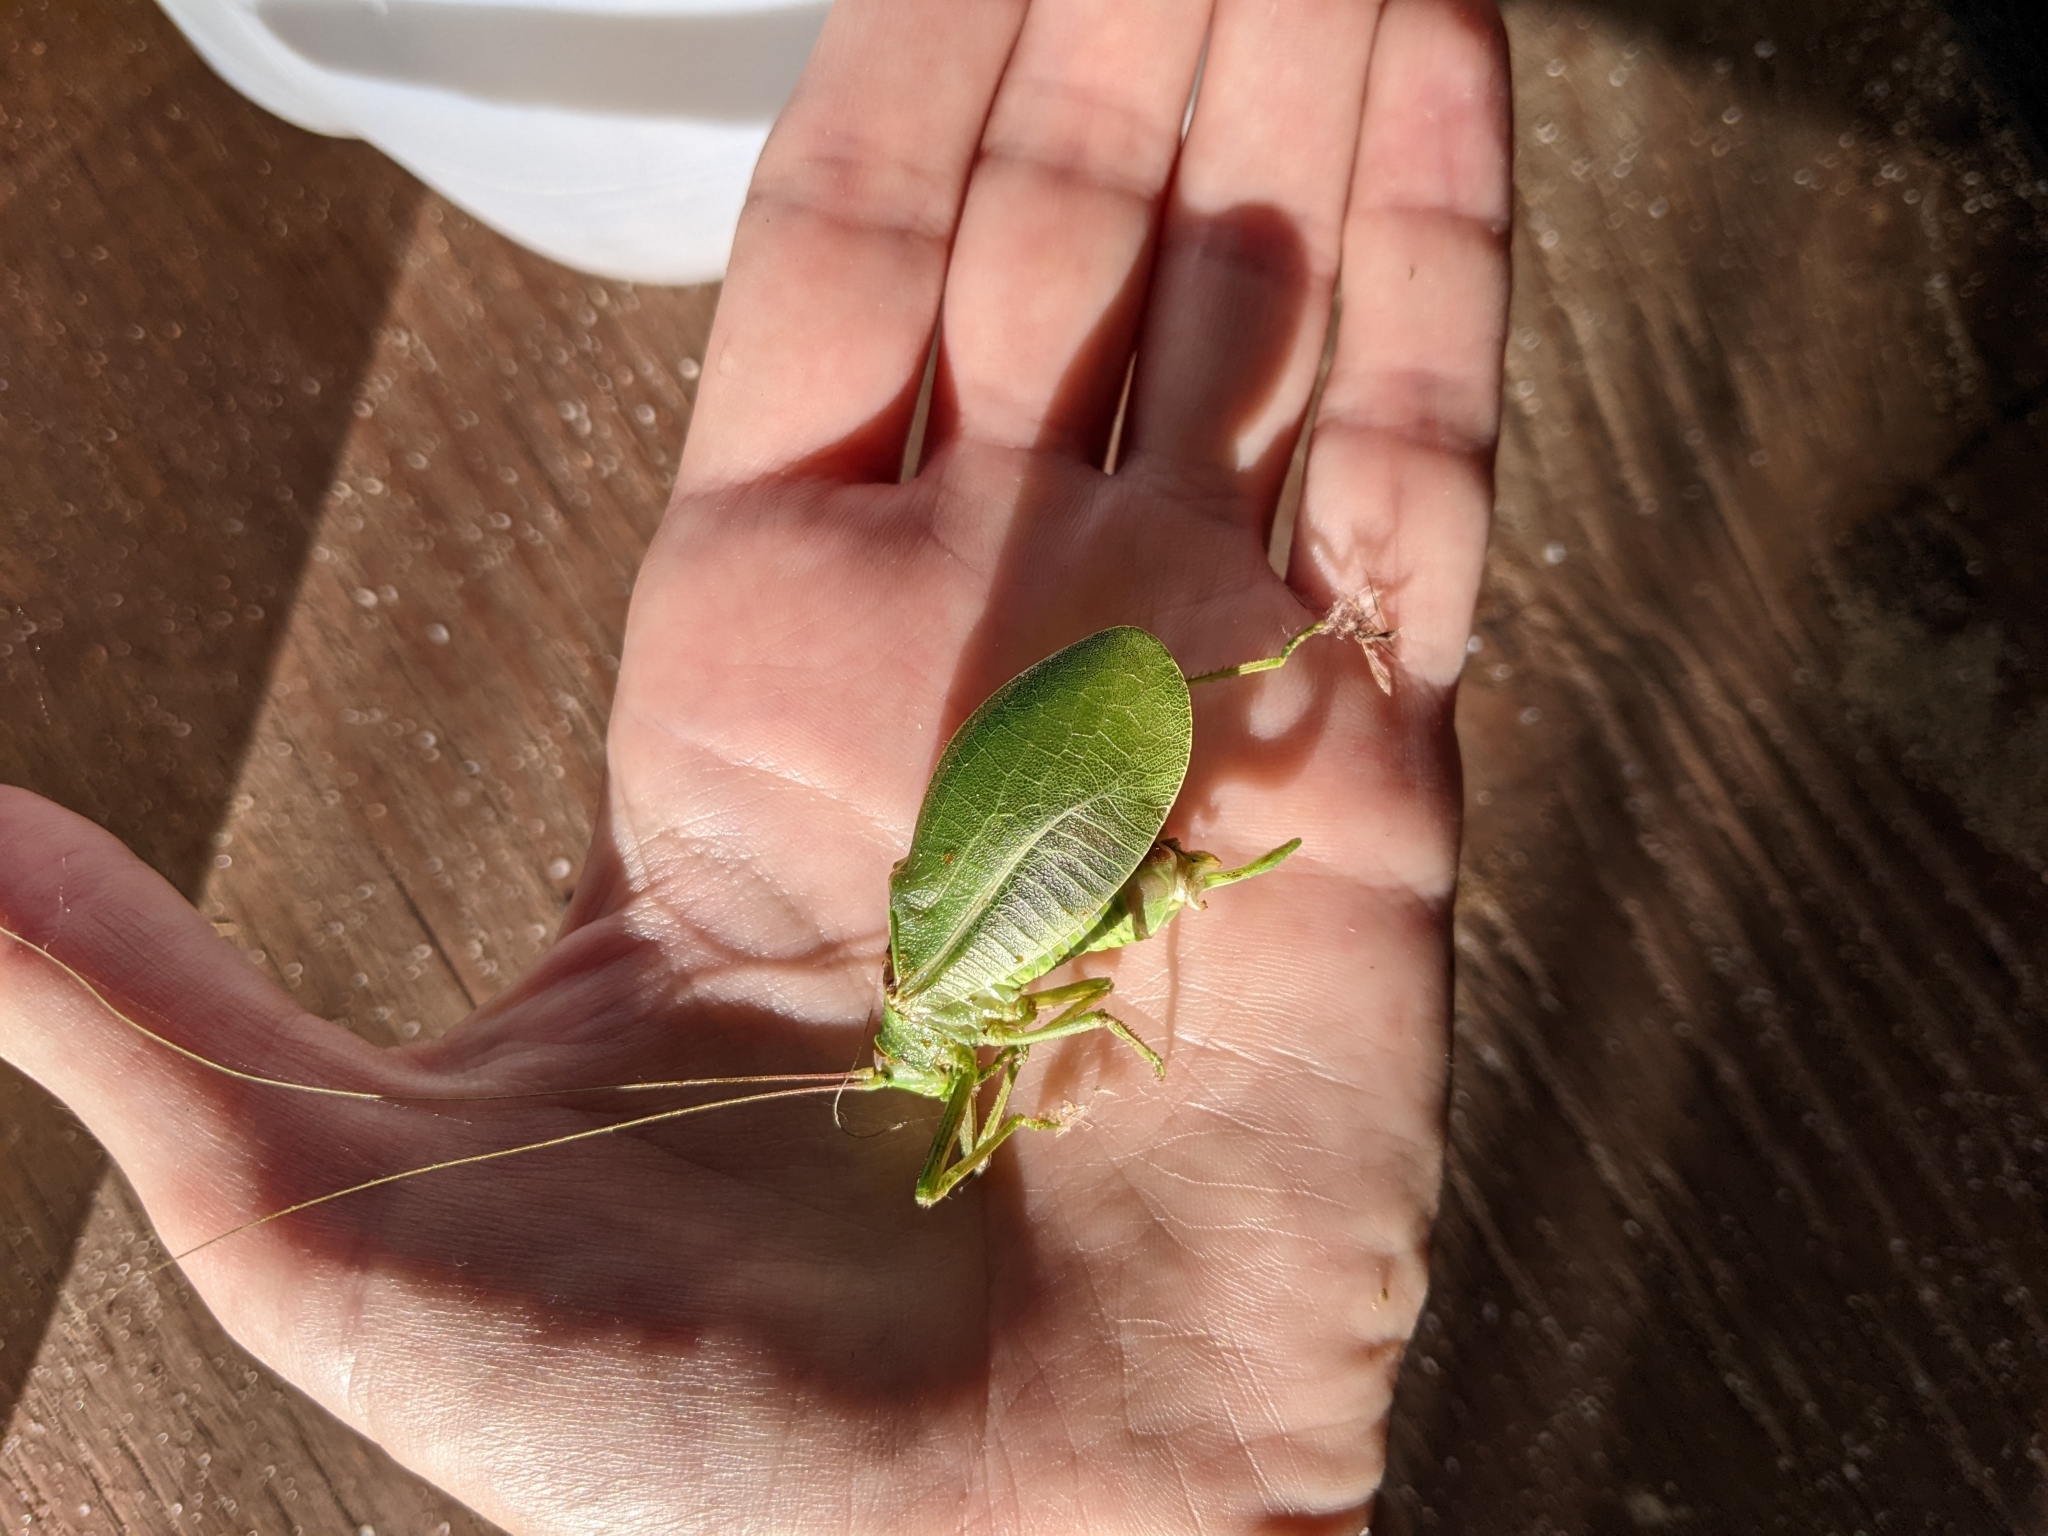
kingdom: Animalia
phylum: Arthropoda
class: Insecta
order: Orthoptera
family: Tettigoniidae
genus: Pterophylla
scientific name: Pterophylla camellifolia
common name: Common true katydid
